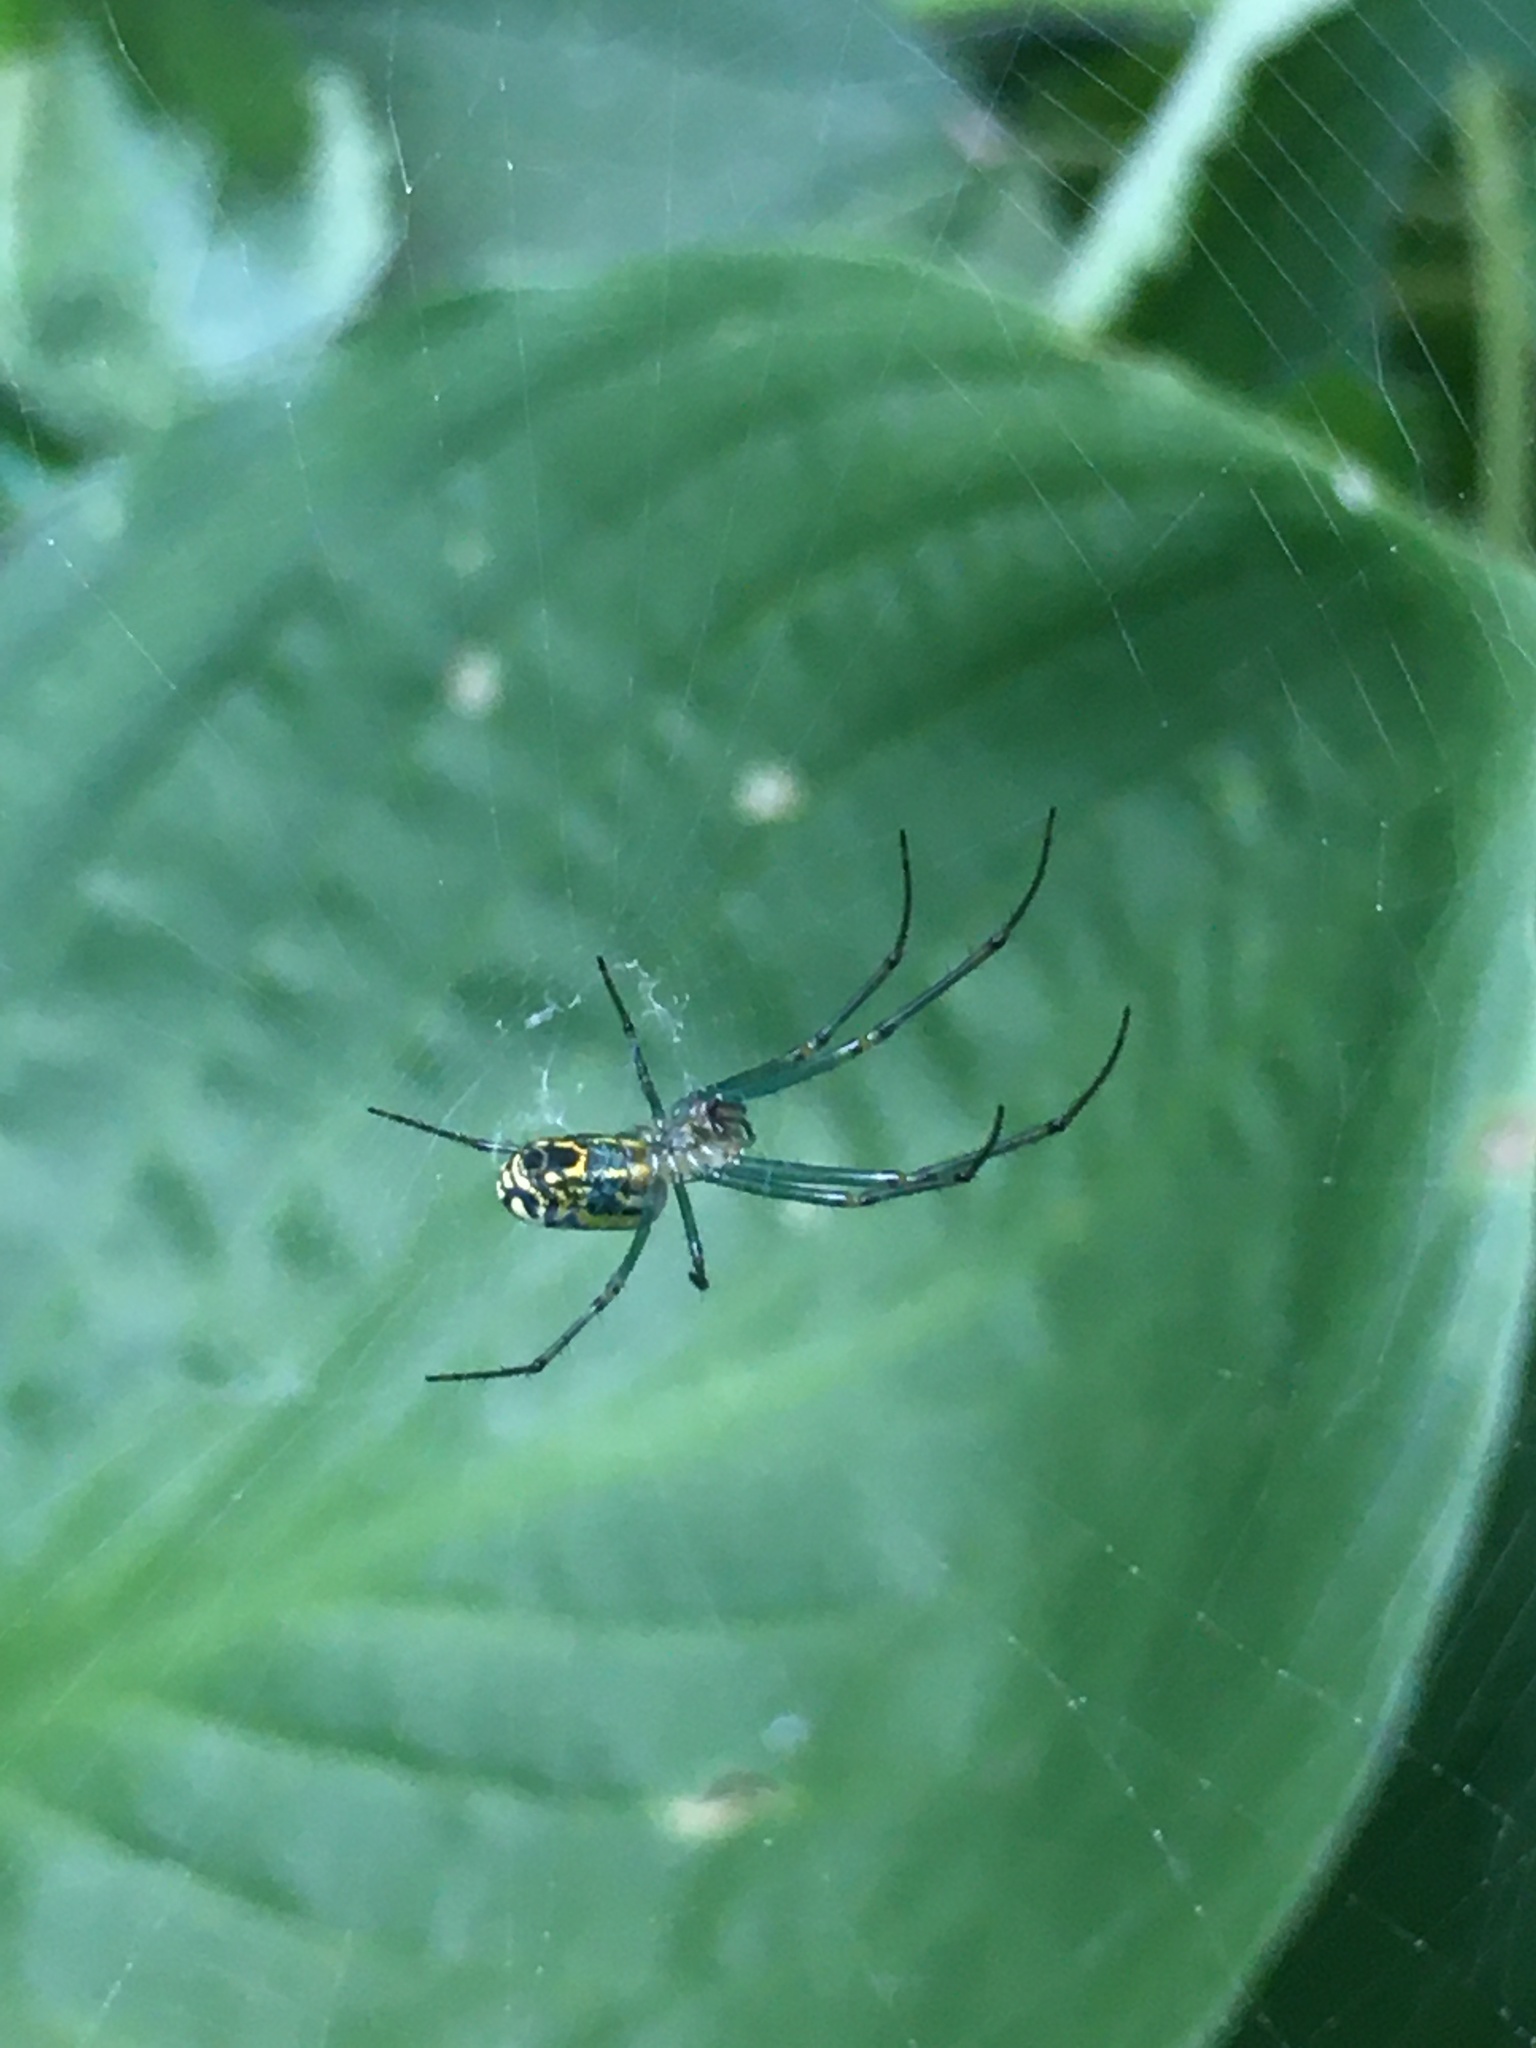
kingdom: Animalia
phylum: Arthropoda
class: Arachnida
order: Araneae
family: Tetragnathidae
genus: Leucauge
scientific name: Leucauge venusta
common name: Longjawed orb weavers
